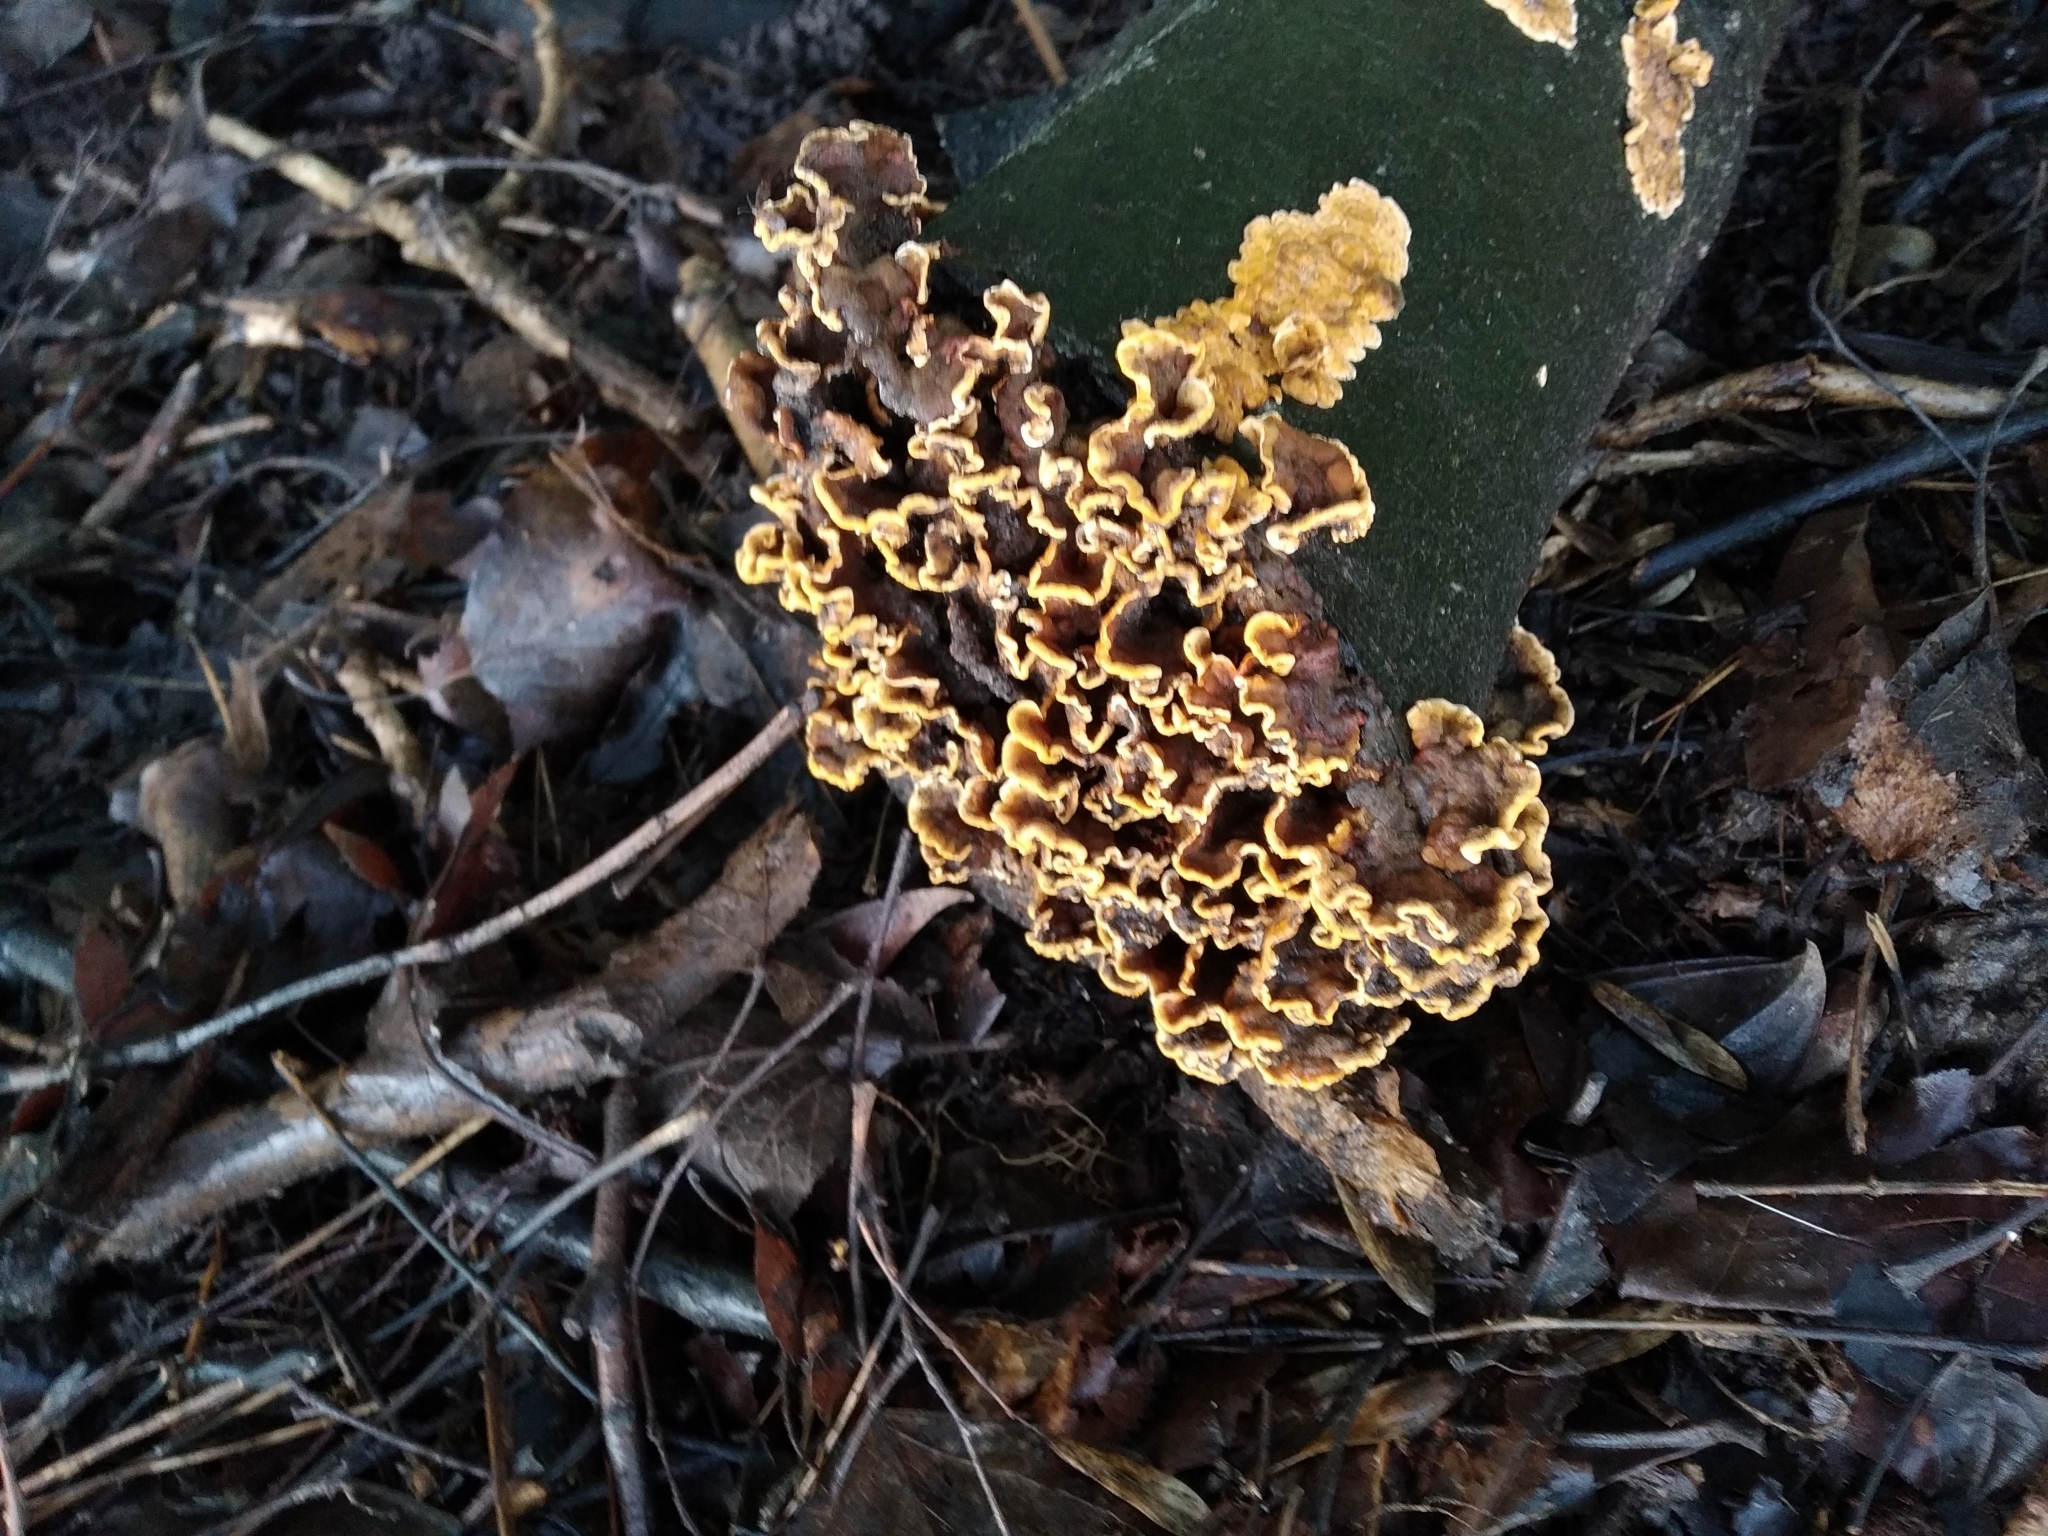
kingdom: Fungi
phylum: Basidiomycota
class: Agaricomycetes
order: Russulales
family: Stereaceae
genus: Stereum
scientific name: Stereum hirsutum
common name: Hairy curtain crust
